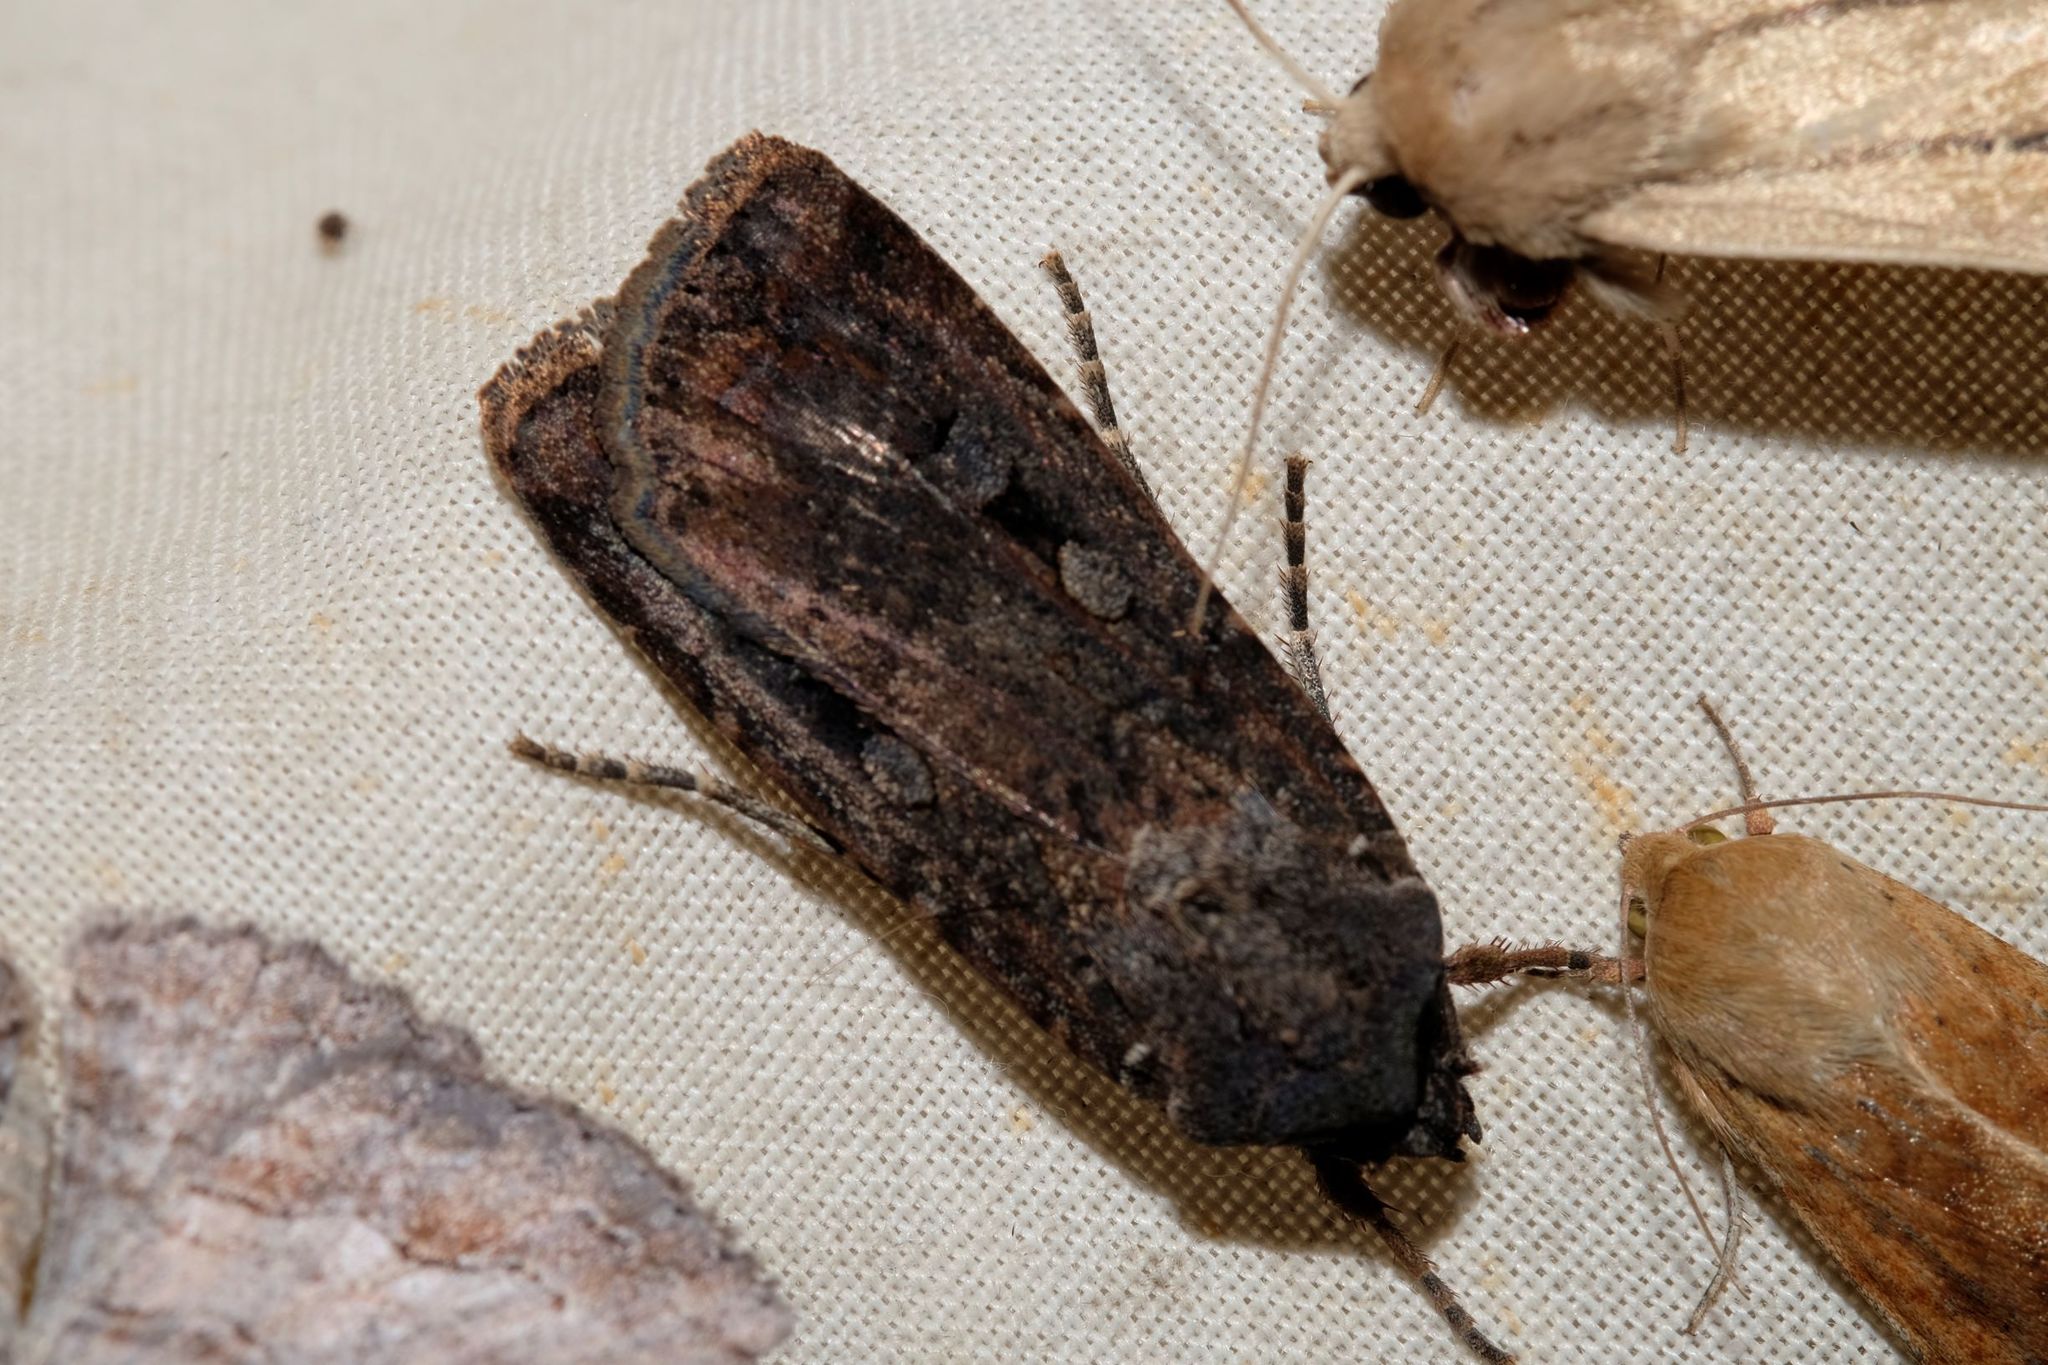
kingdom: Animalia
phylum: Arthropoda
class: Insecta
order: Lepidoptera
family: Noctuidae
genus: Agrotis
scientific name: Agrotis infusa
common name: Bogong moth
